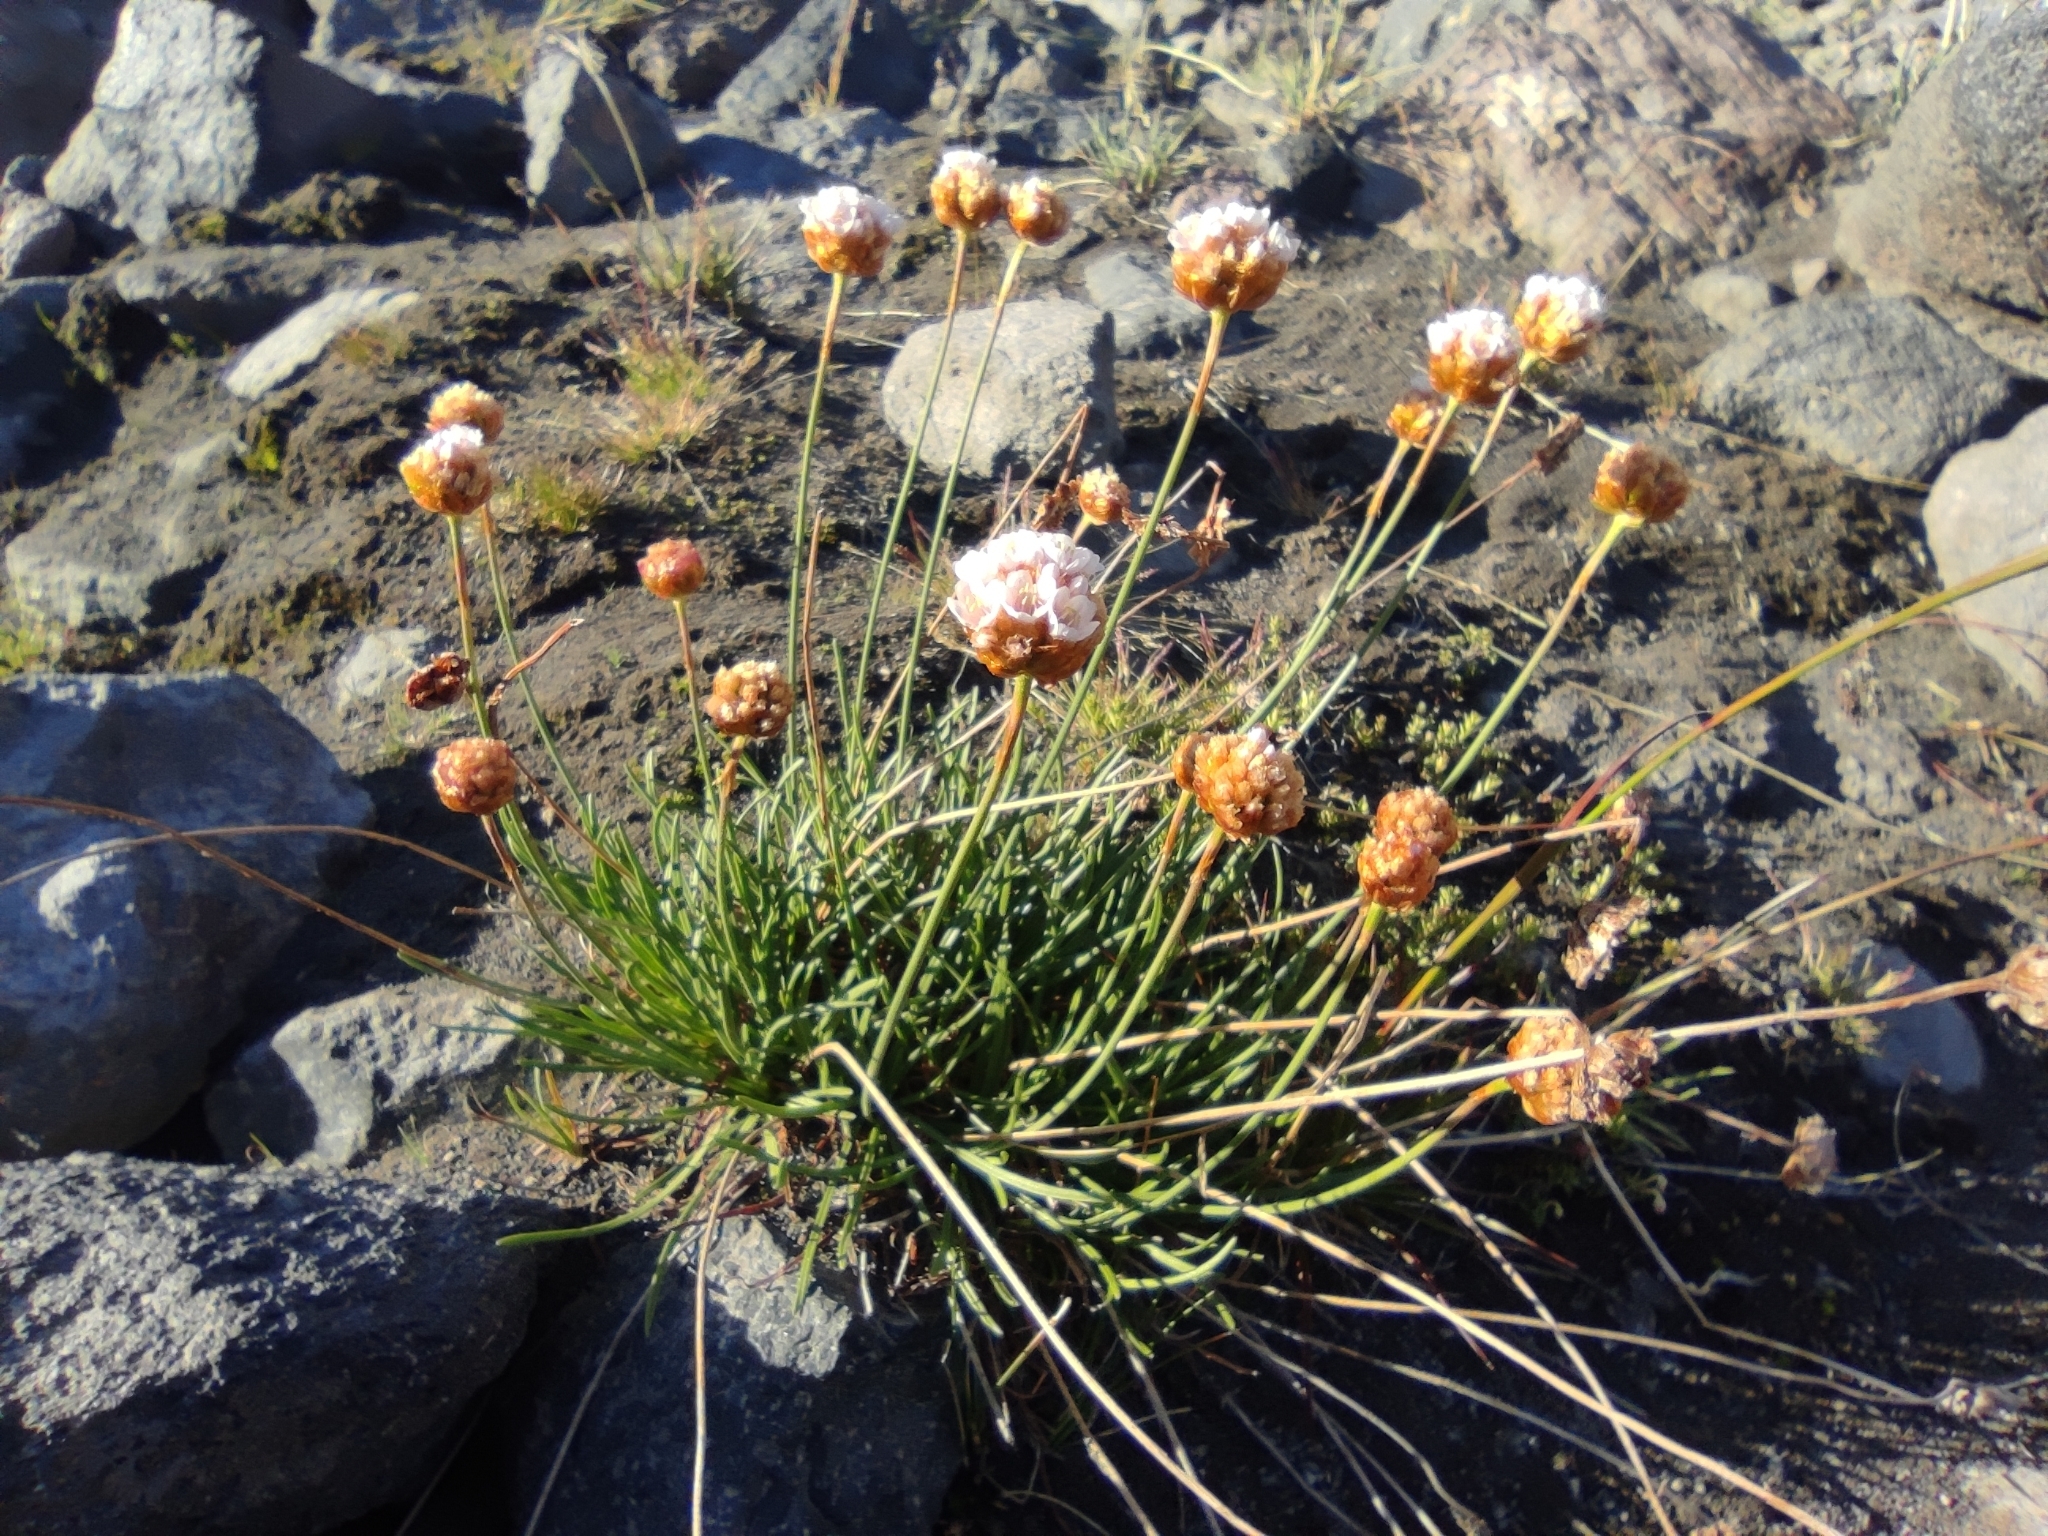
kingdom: Plantae
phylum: Tracheophyta
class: Magnoliopsida
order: Caryophyllales
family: Plumbaginaceae
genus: Armeria
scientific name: Armeria curvifolia
